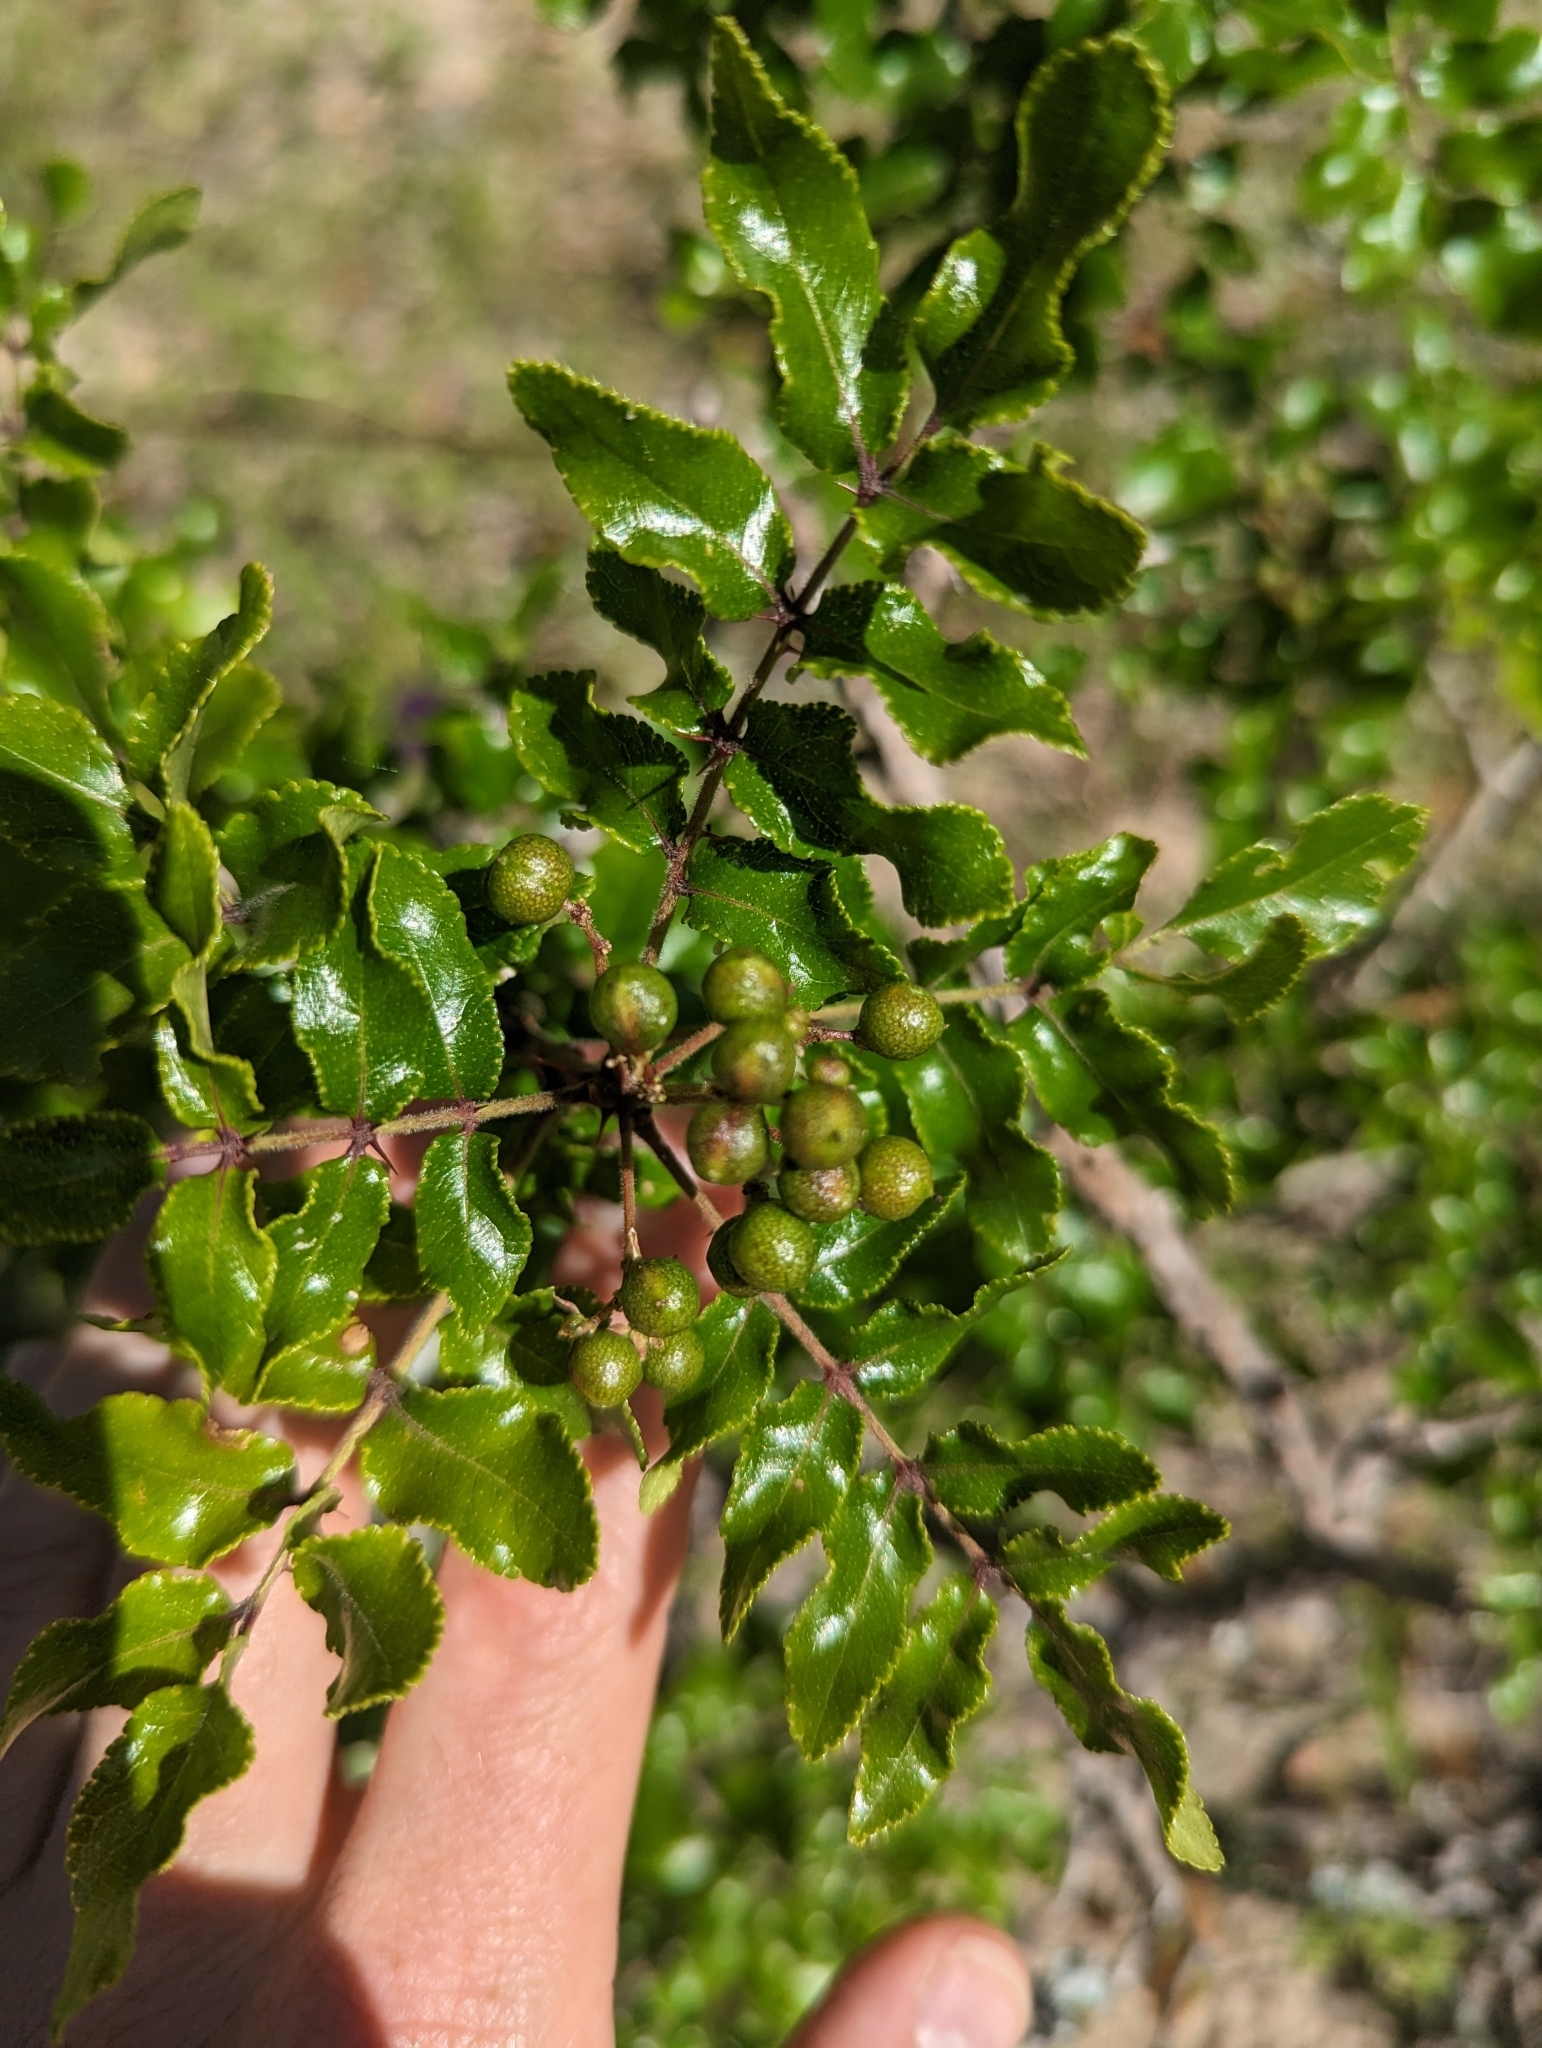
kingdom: Plantae
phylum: Tracheophyta
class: Magnoliopsida
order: Sapindales
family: Rutaceae
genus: Zanthoxylum
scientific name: Zanthoxylum clava-herculis
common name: Hercules'-club
